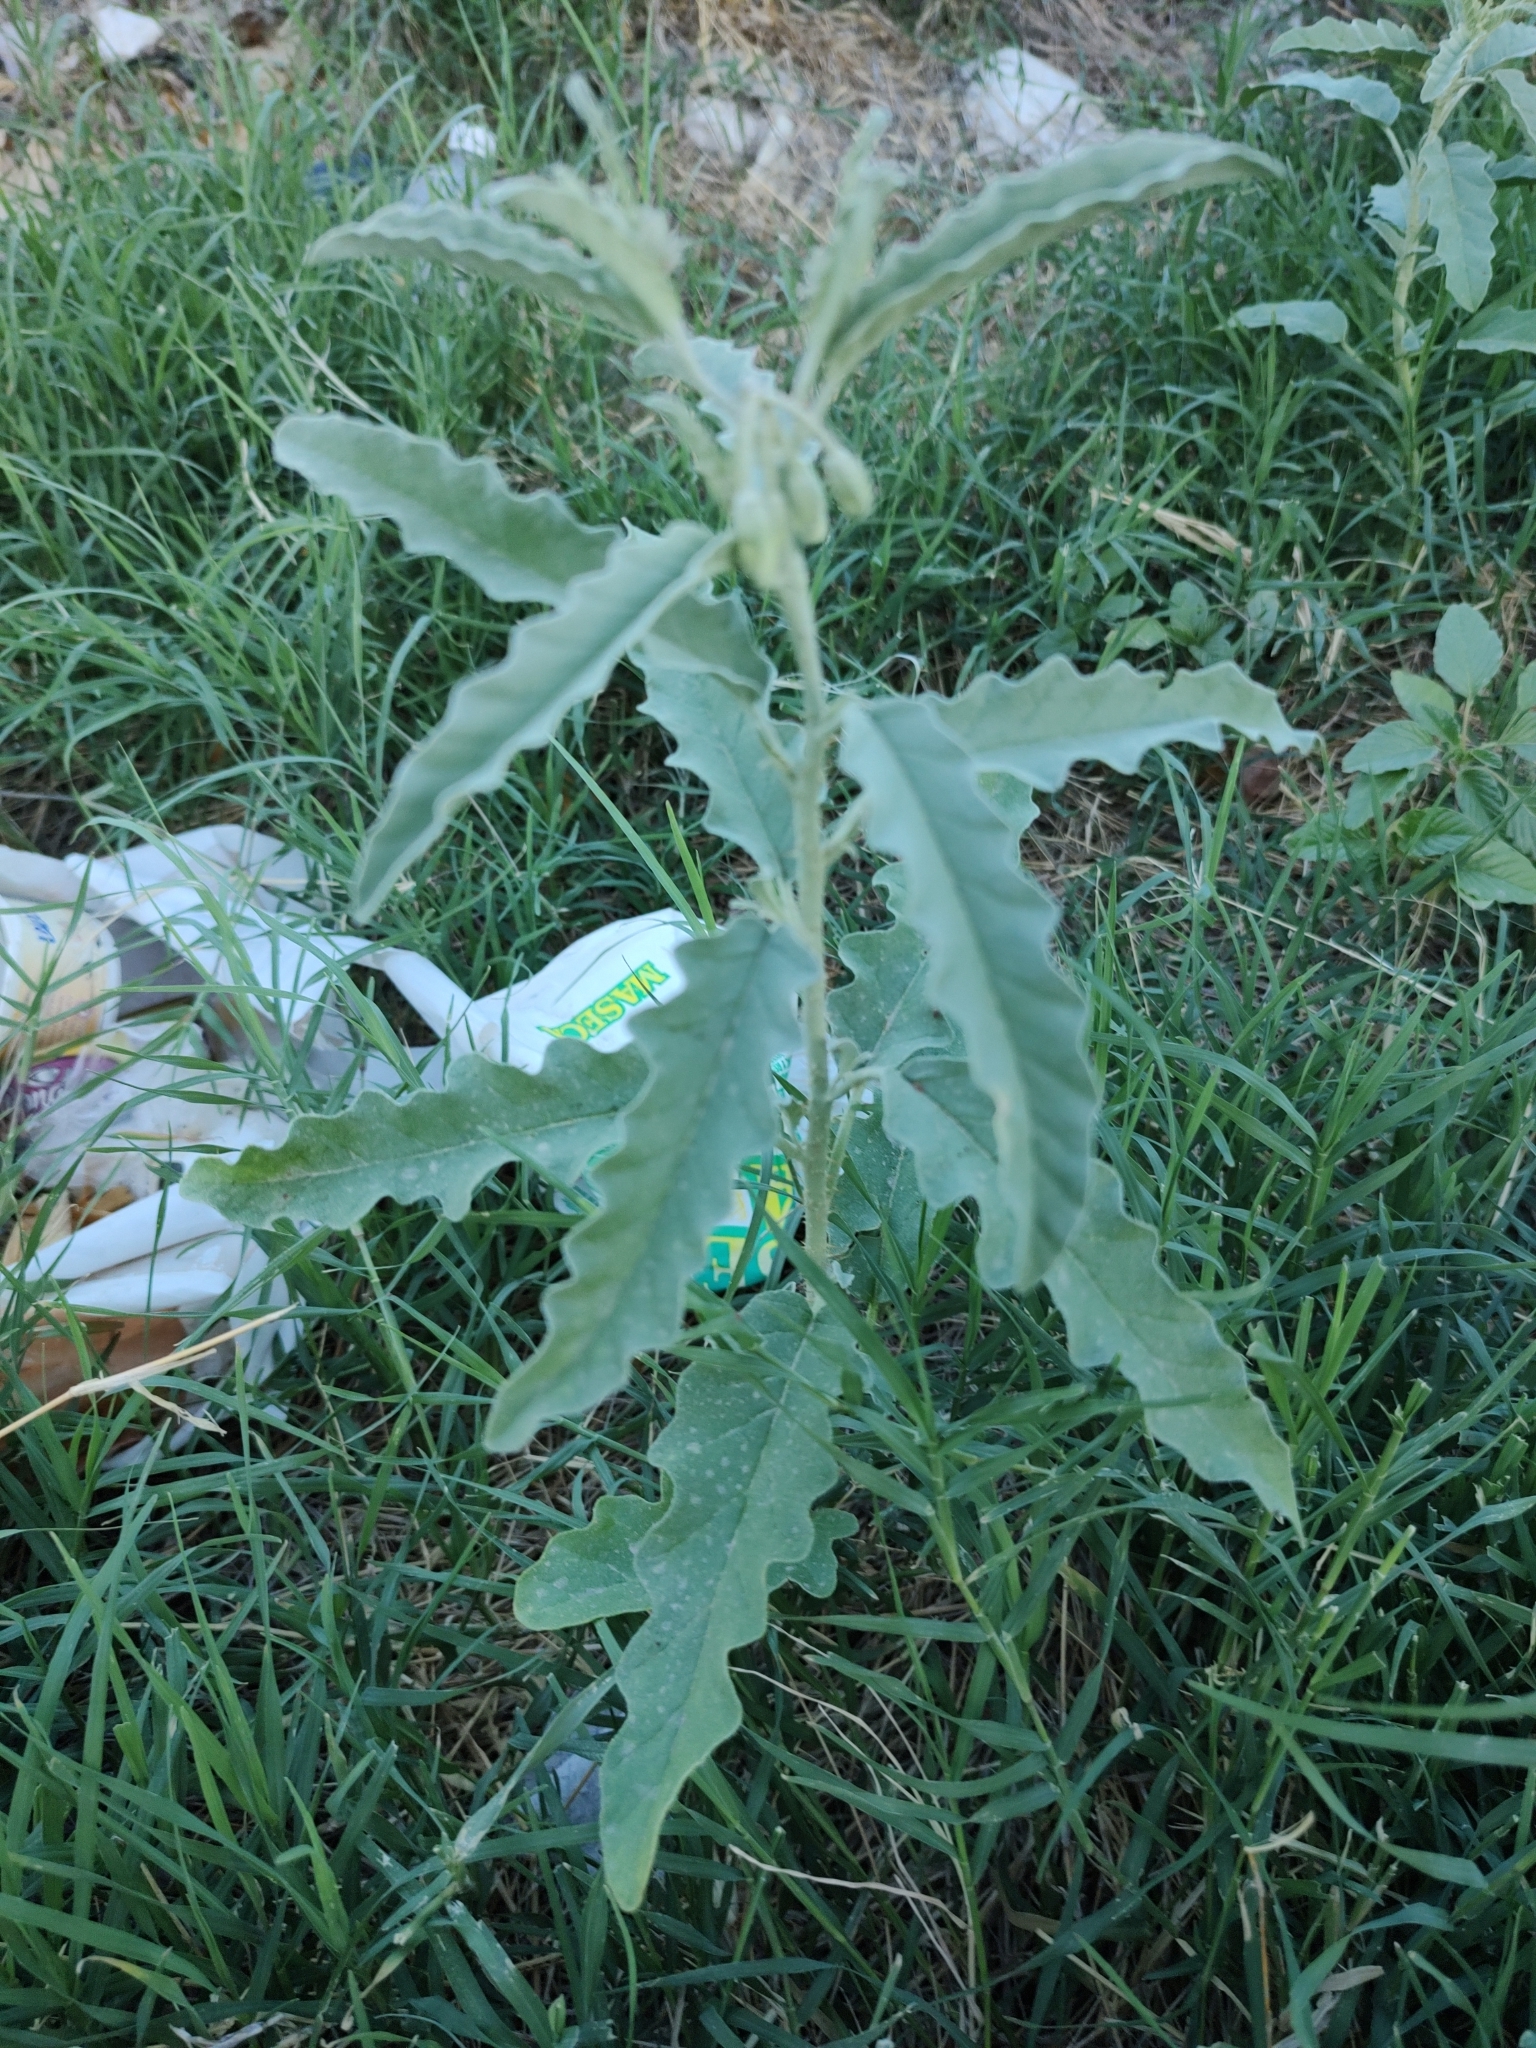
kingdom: Plantae
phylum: Tracheophyta
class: Magnoliopsida
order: Solanales
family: Solanaceae
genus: Solanum
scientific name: Solanum elaeagnifolium
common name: Silverleaf nightshade
